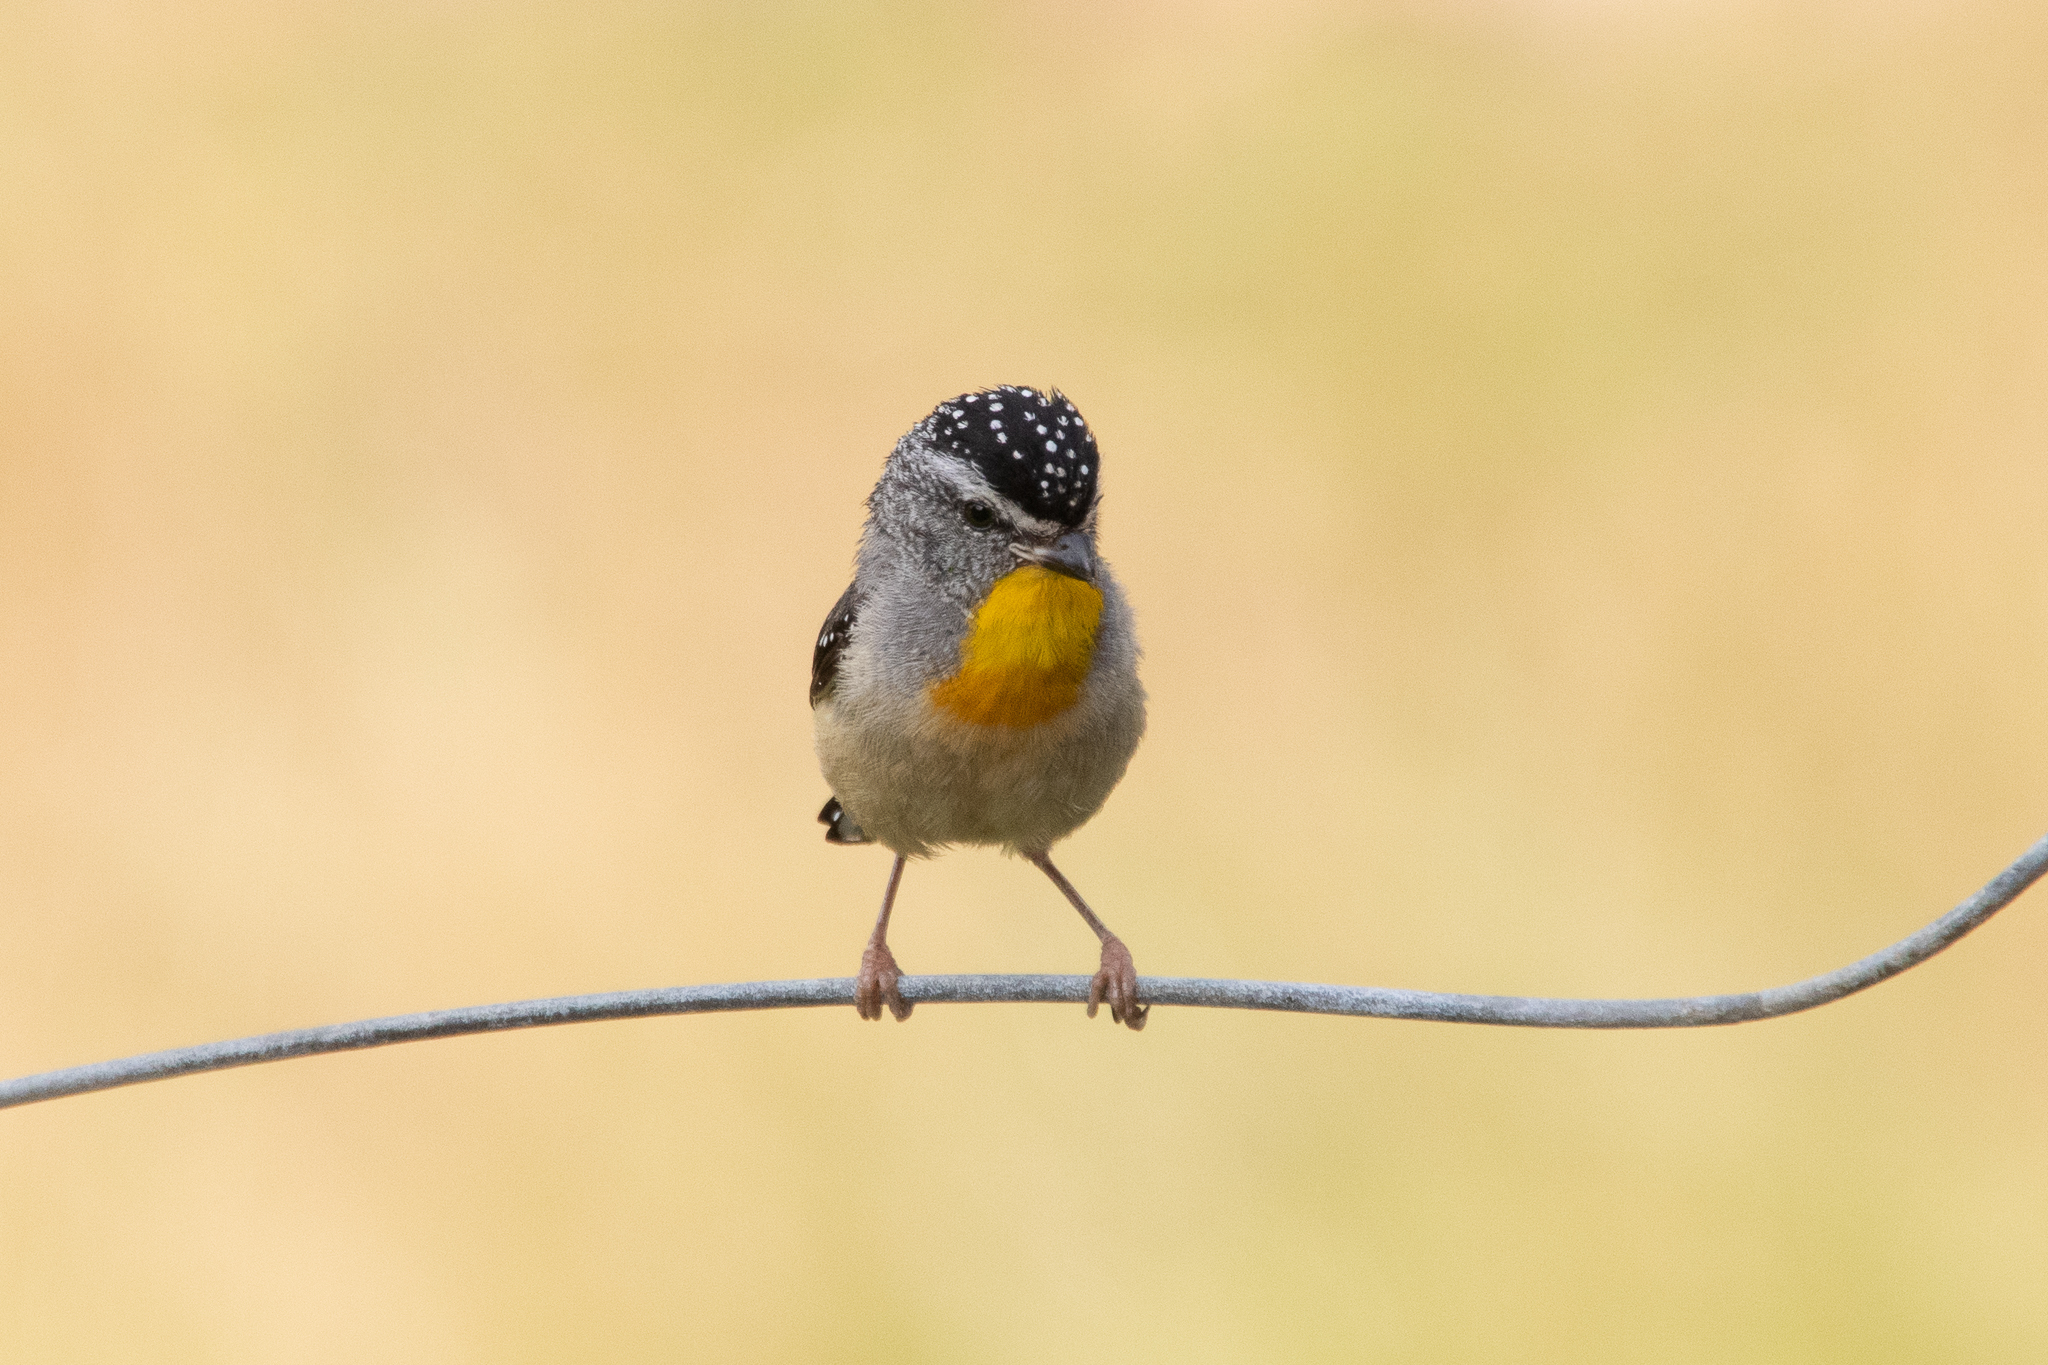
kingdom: Animalia
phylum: Chordata
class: Aves
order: Passeriformes
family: Pardalotidae
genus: Pardalotus
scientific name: Pardalotus punctatus
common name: Spotted pardalote
